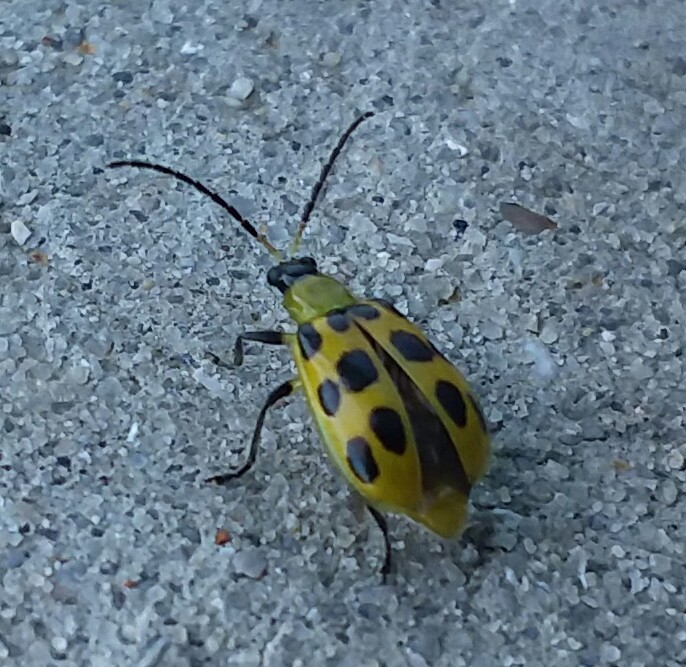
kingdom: Animalia
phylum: Arthropoda
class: Insecta
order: Coleoptera
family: Chrysomelidae
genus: Diabrotica
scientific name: Diabrotica undecimpunctata
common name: Spotted cucumber beetle
